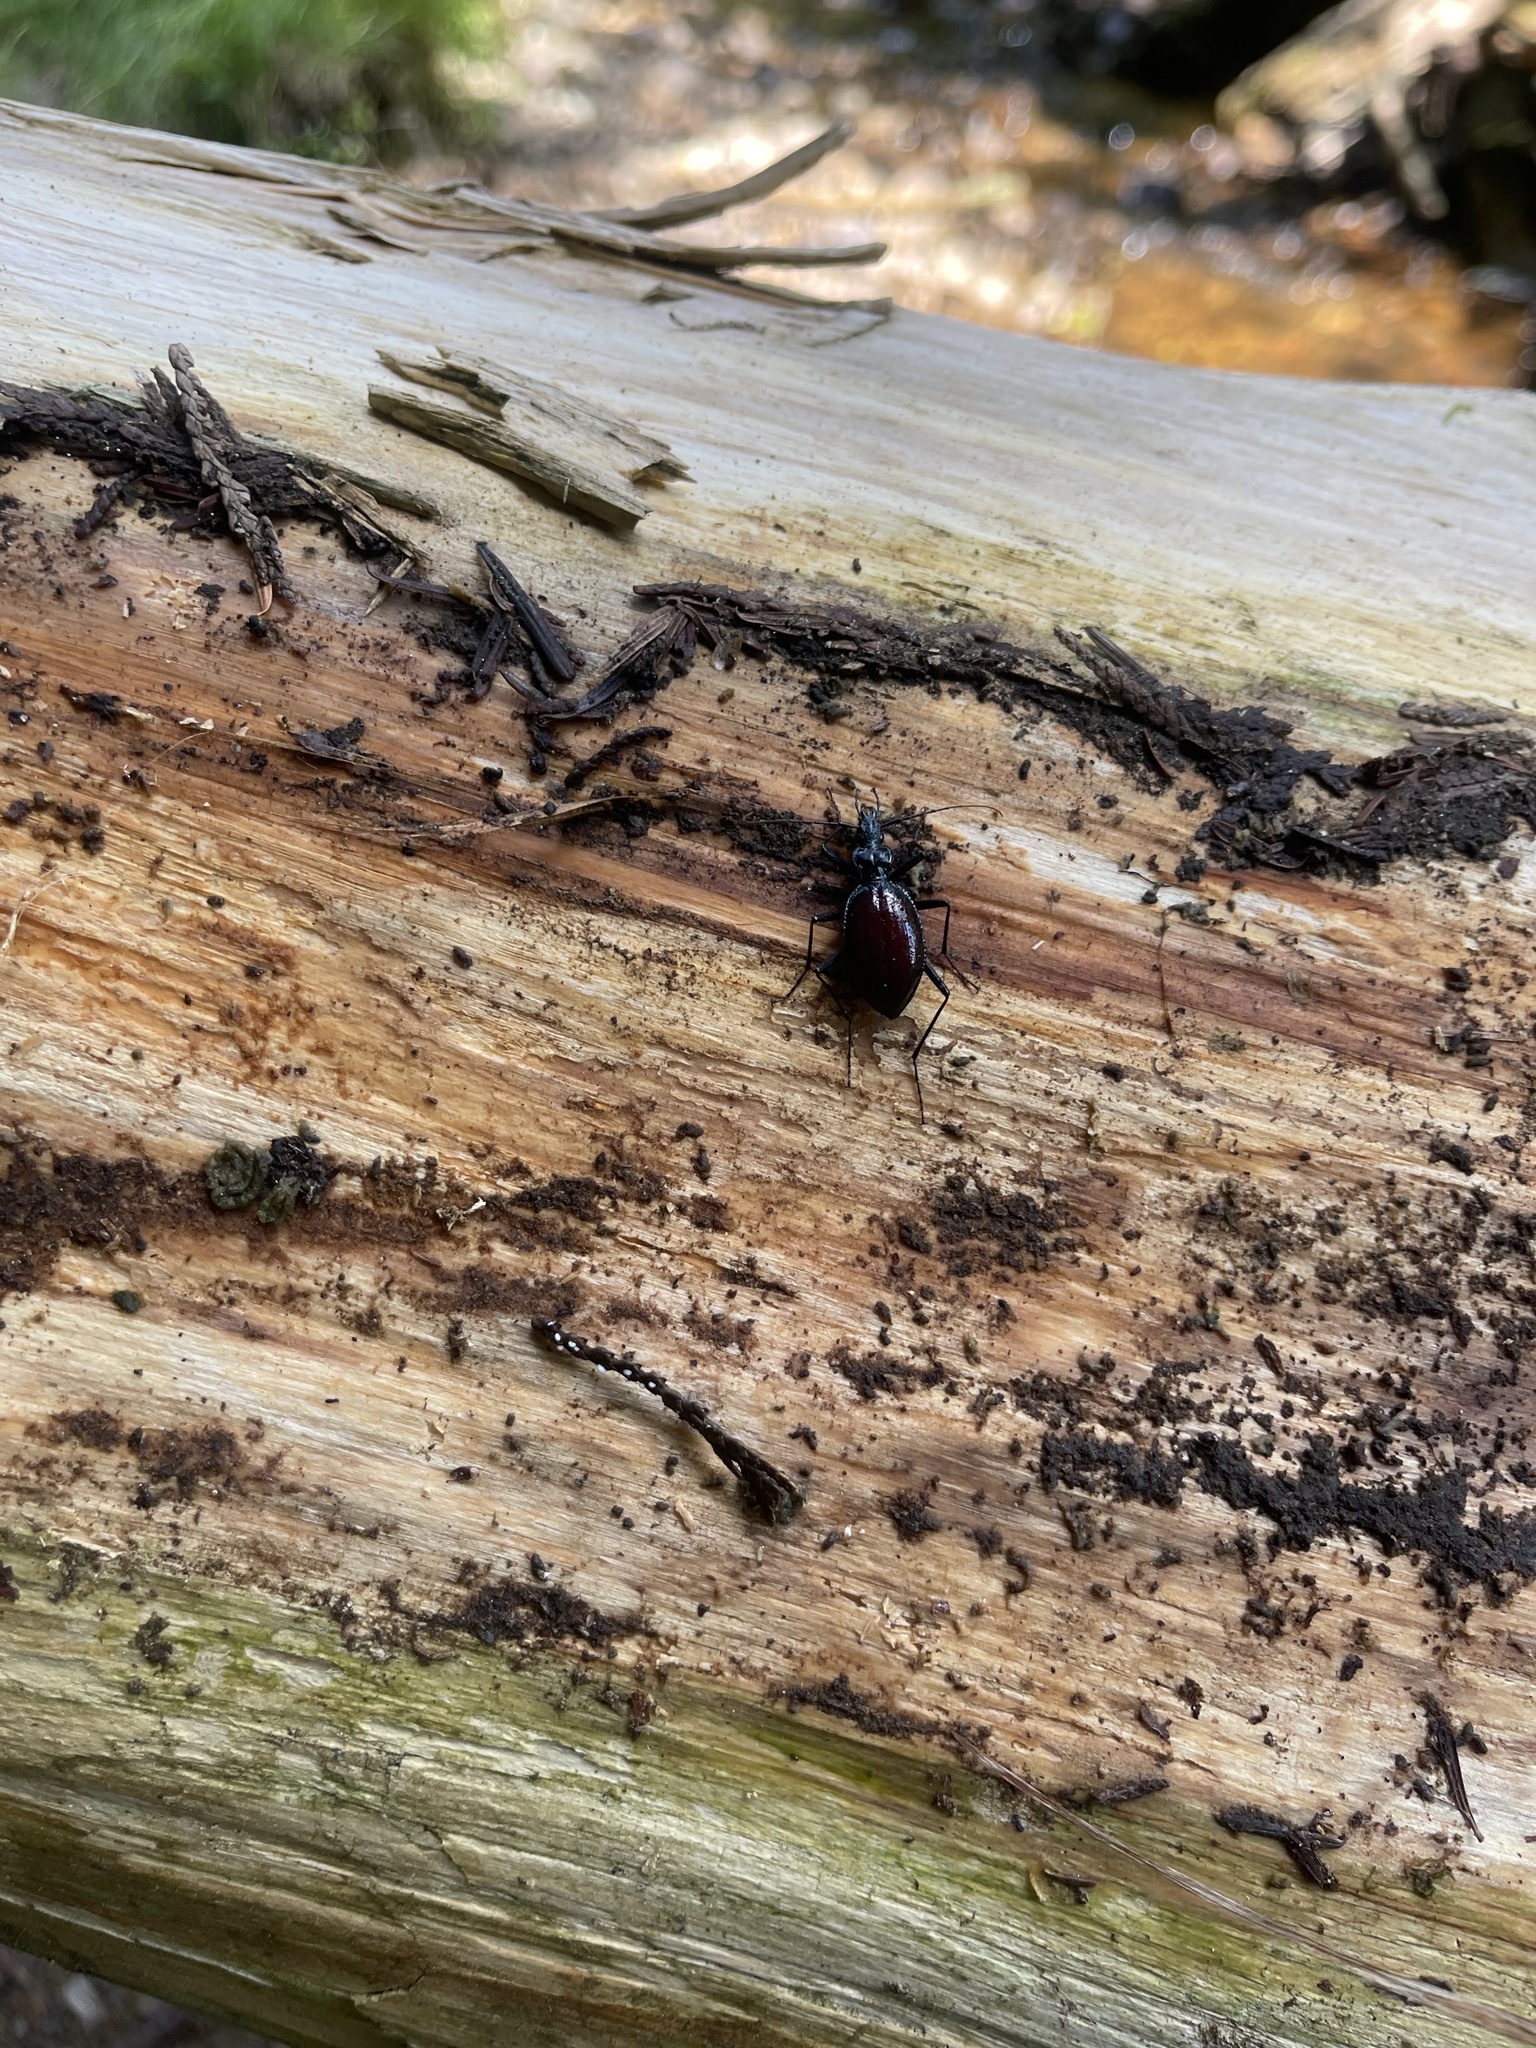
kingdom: Animalia
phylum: Arthropoda
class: Insecta
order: Coleoptera
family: Carabidae
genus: Scaphinotus
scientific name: Scaphinotus angusticollis
